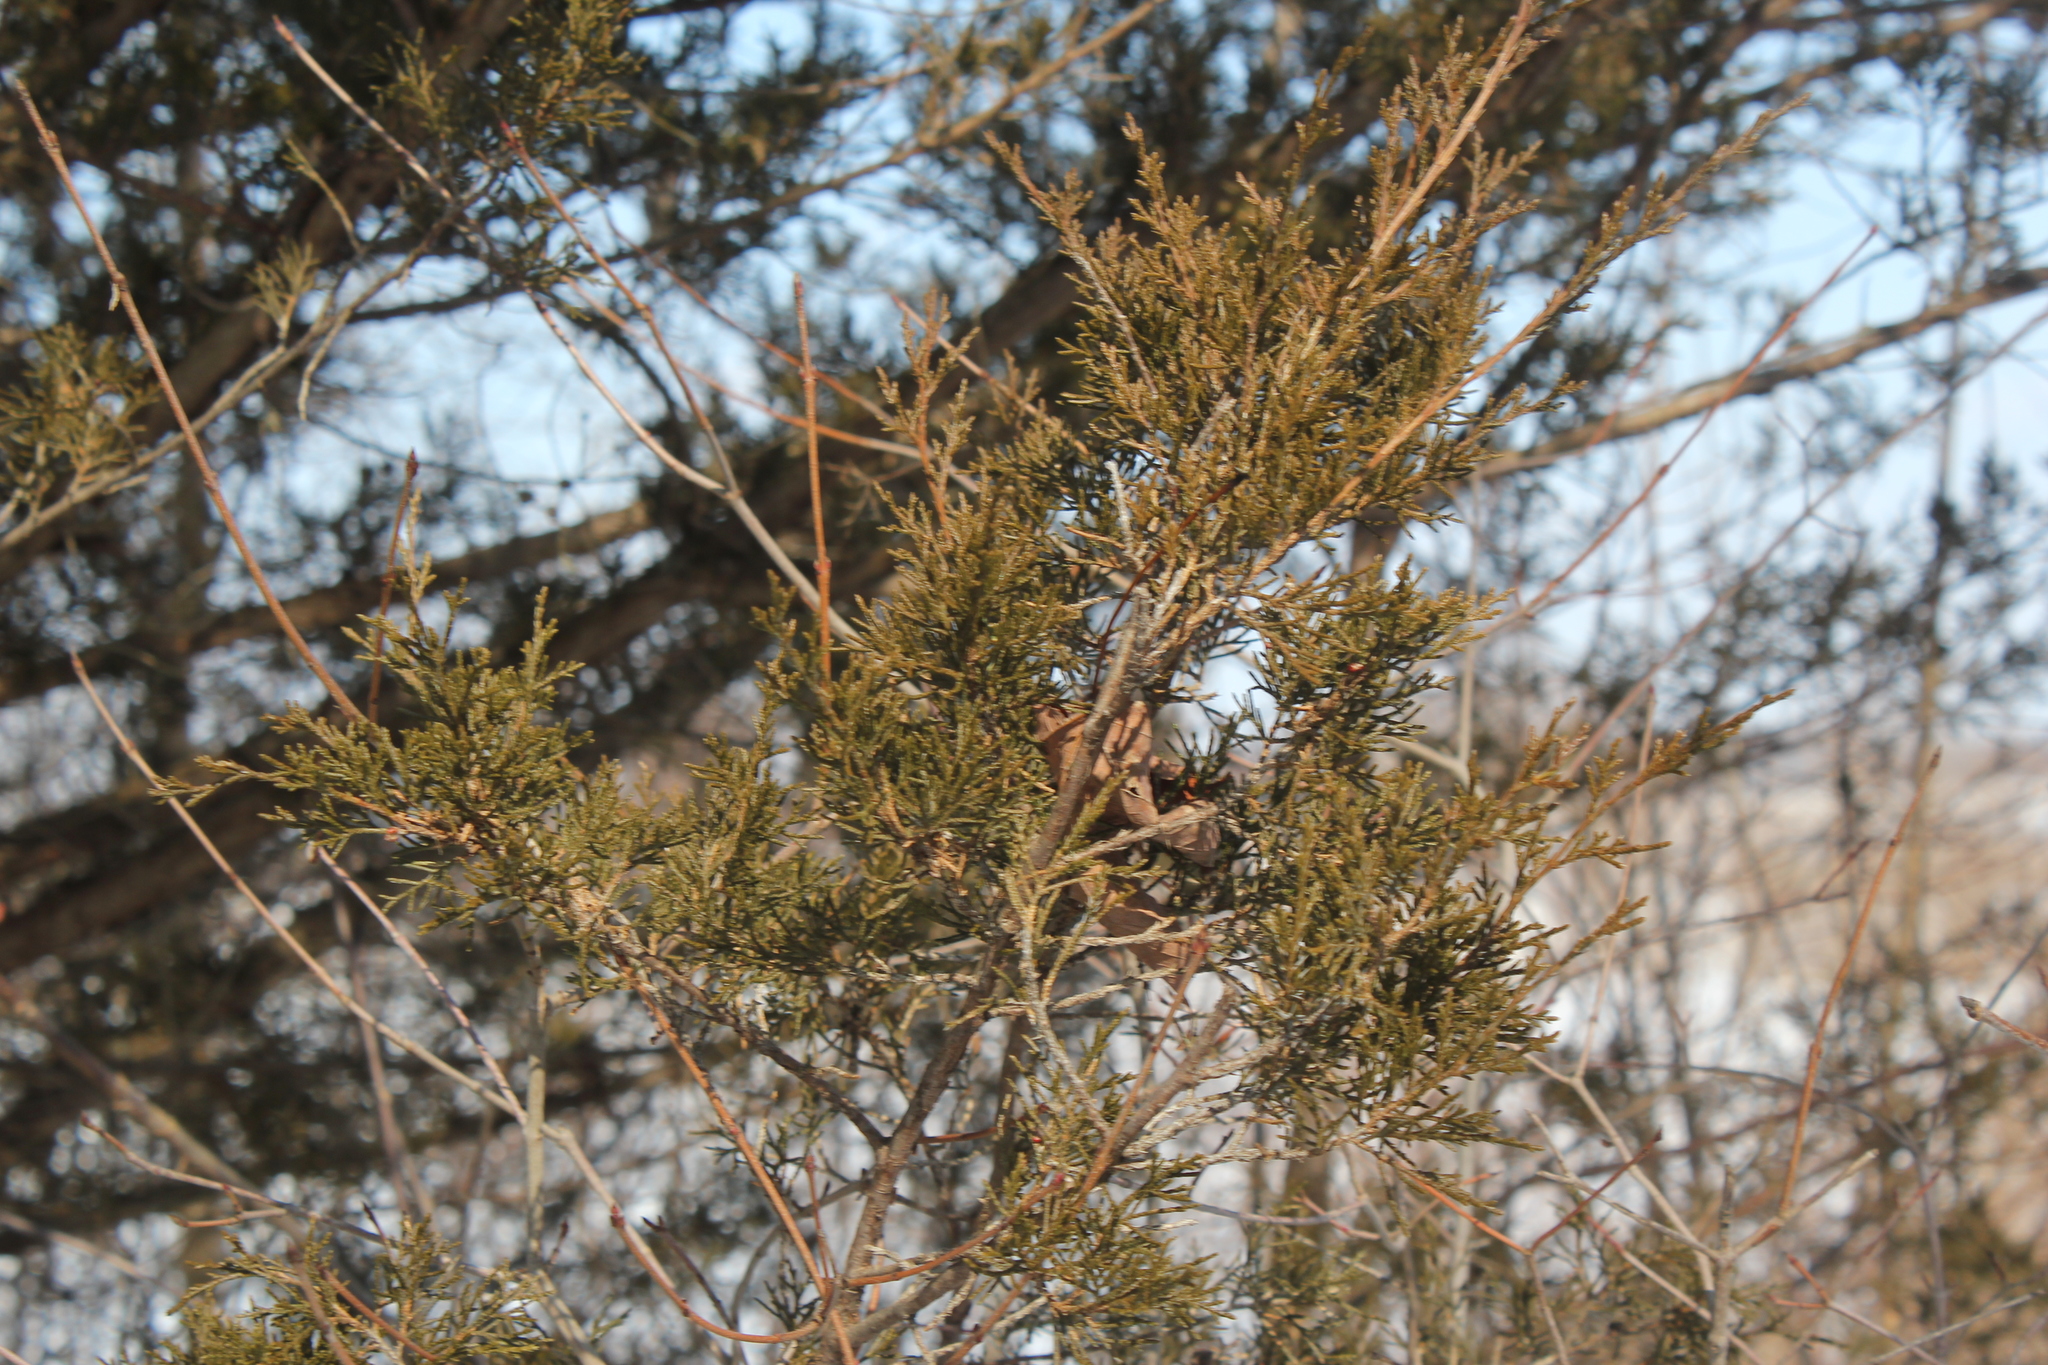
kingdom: Plantae
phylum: Tracheophyta
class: Pinopsida
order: Pinales
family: Cupressaceae
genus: Juniperus
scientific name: Juniperus virginiana
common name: Red juniper
